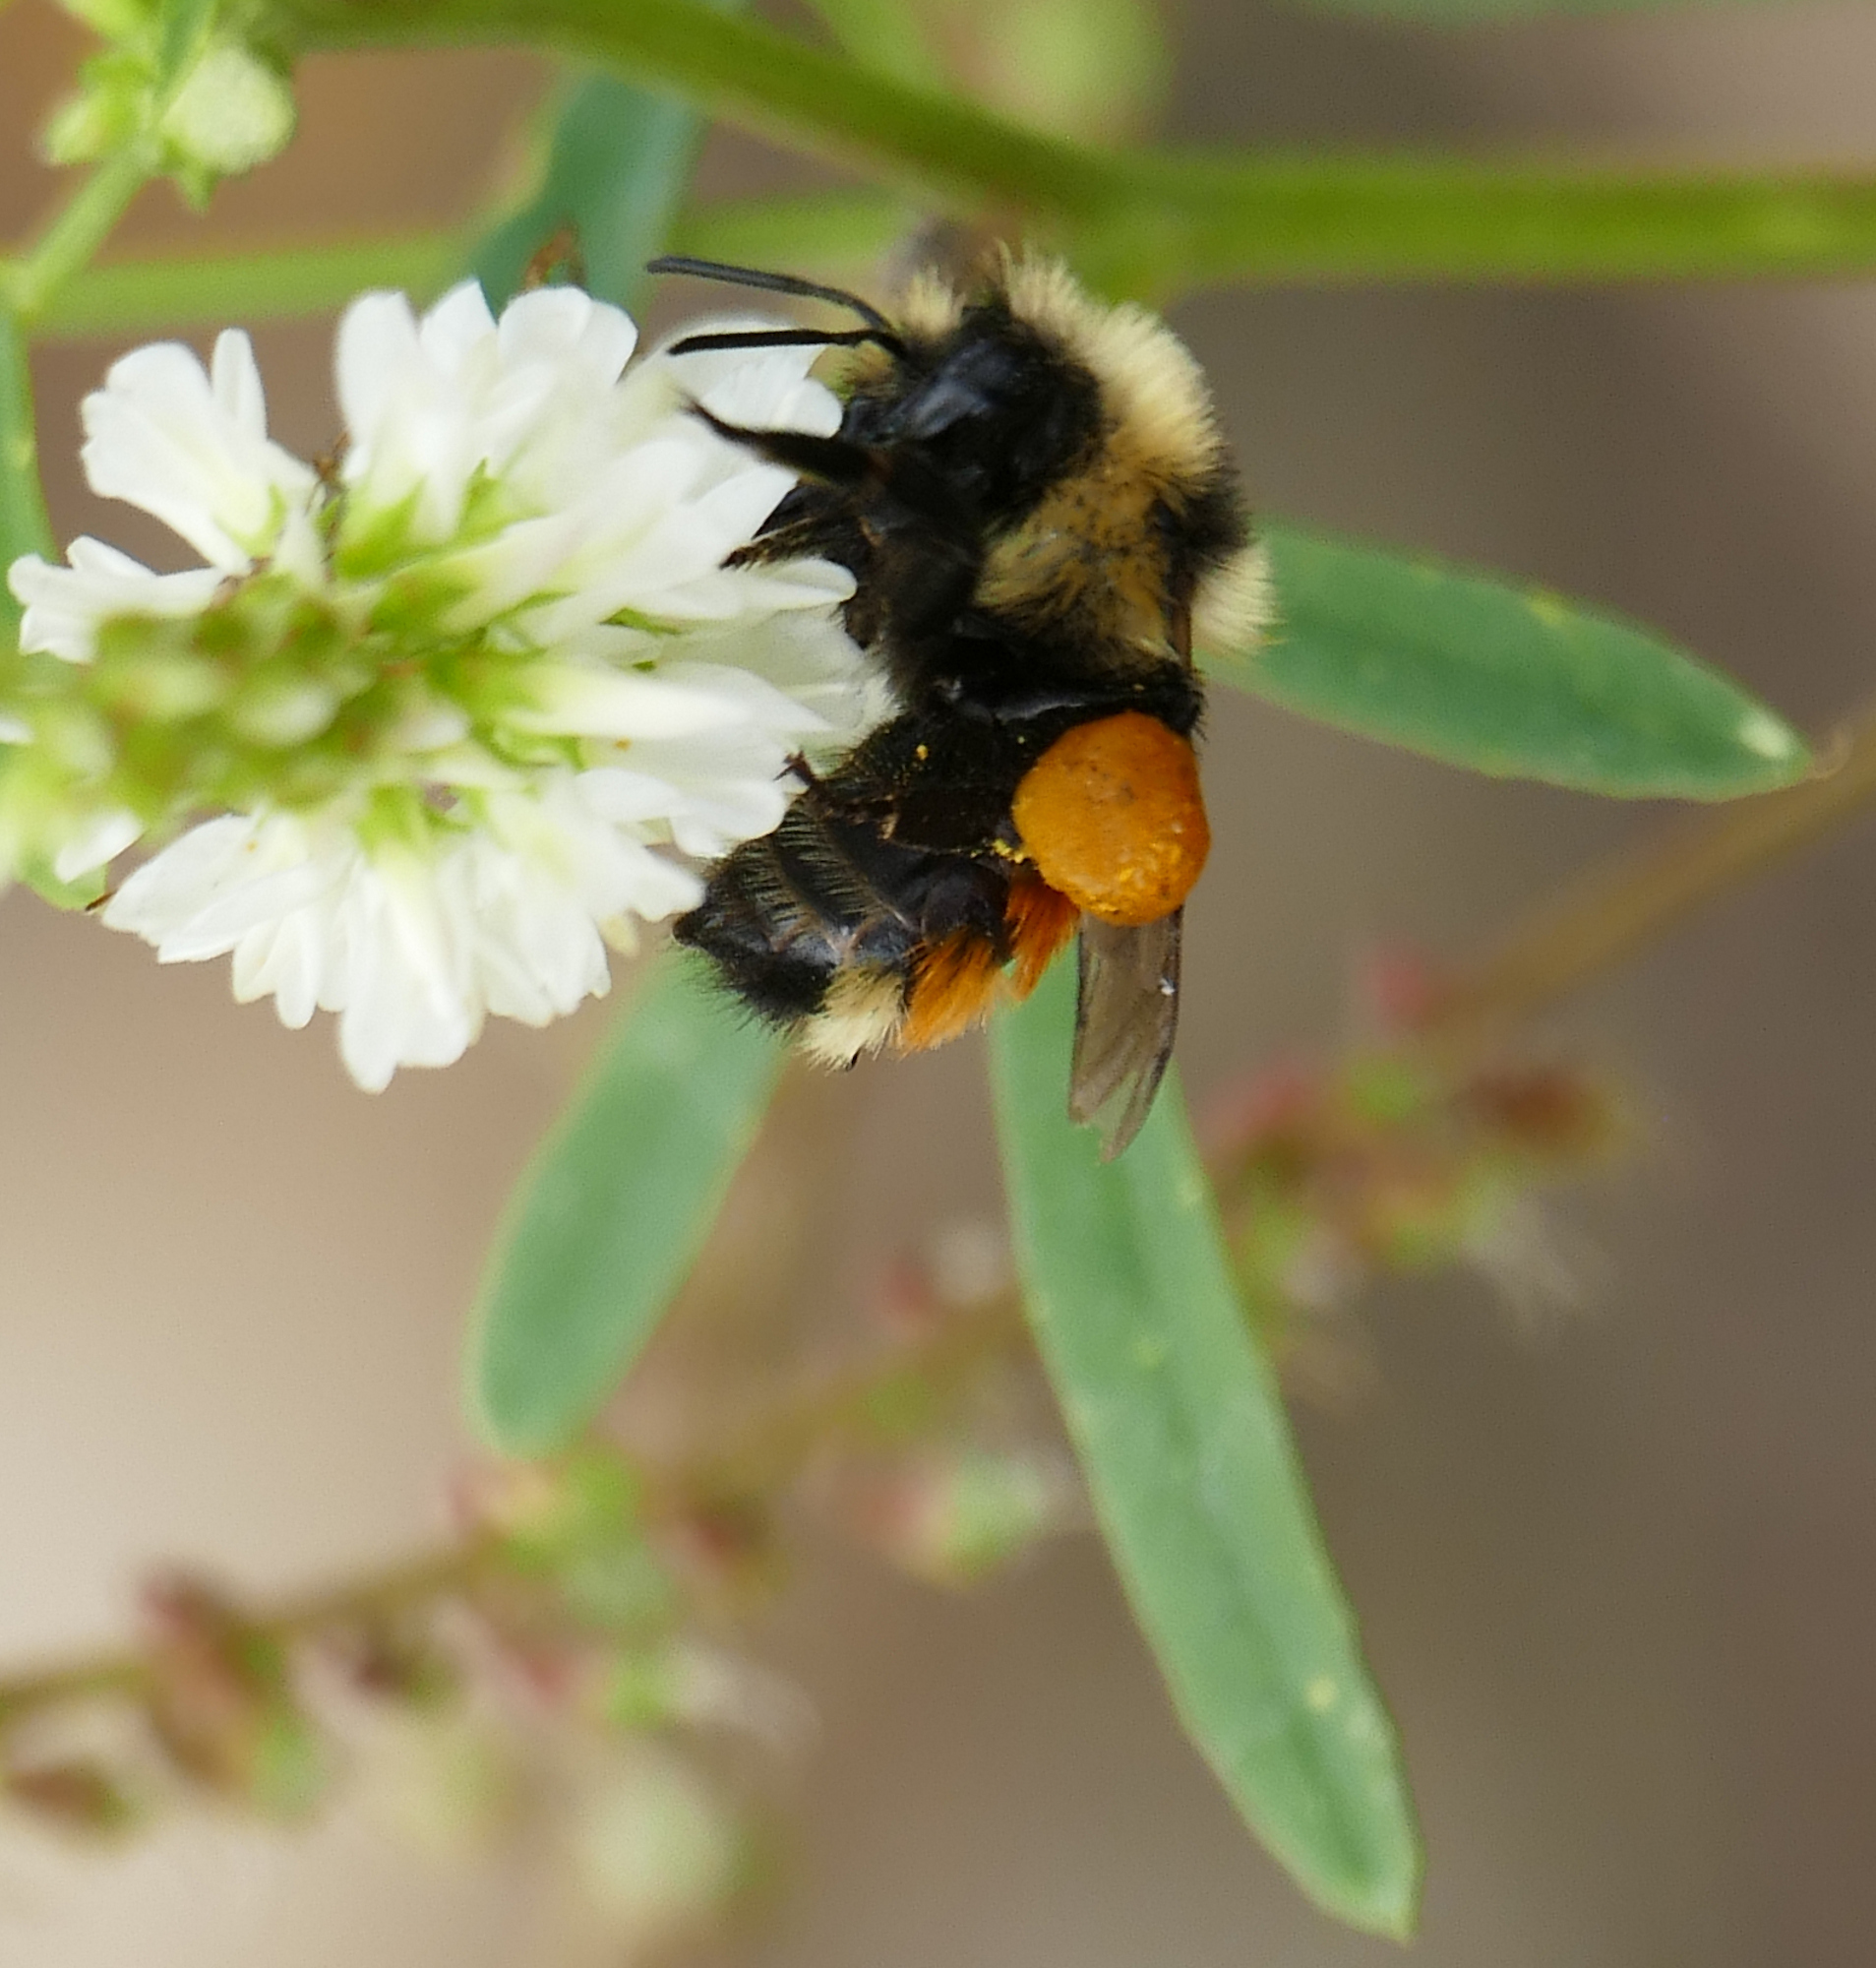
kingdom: Animalia
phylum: Arthropoda
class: Insecta
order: Hymenoptera
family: Apidae
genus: Bombus
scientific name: Bombus huntii
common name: Hunt bumble bee
